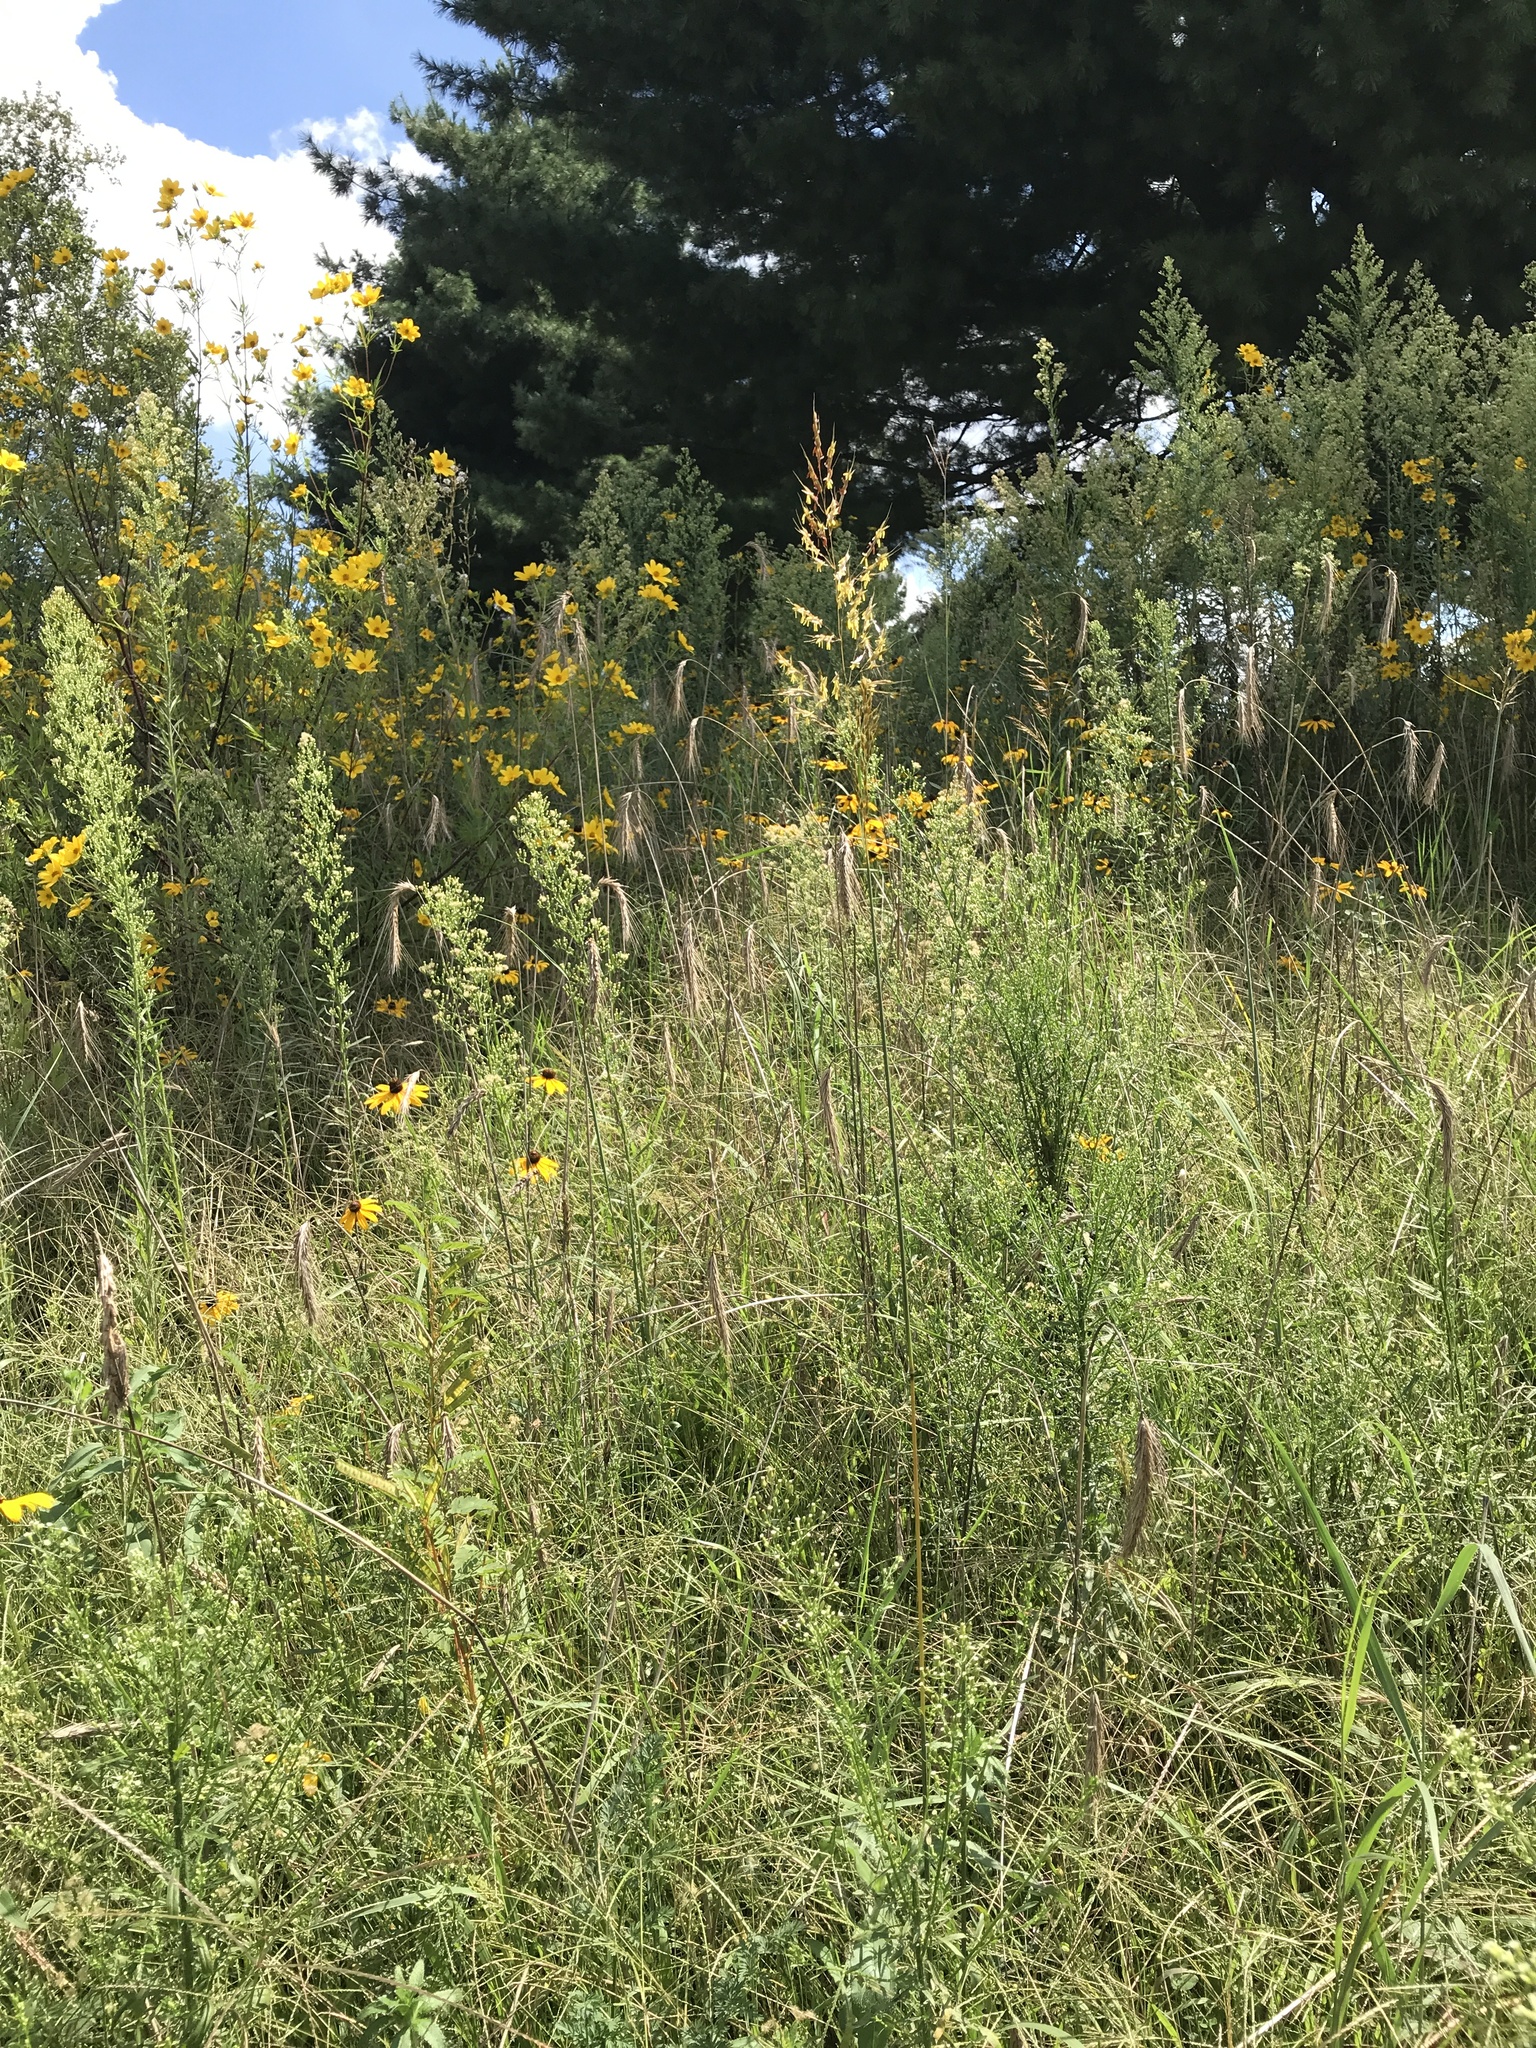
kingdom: Plantae
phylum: Tracheophyta
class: Liliopsida
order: Poales
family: Poaceae
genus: Sorghastrum
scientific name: Sorghastrum nutans
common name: Indian grass
